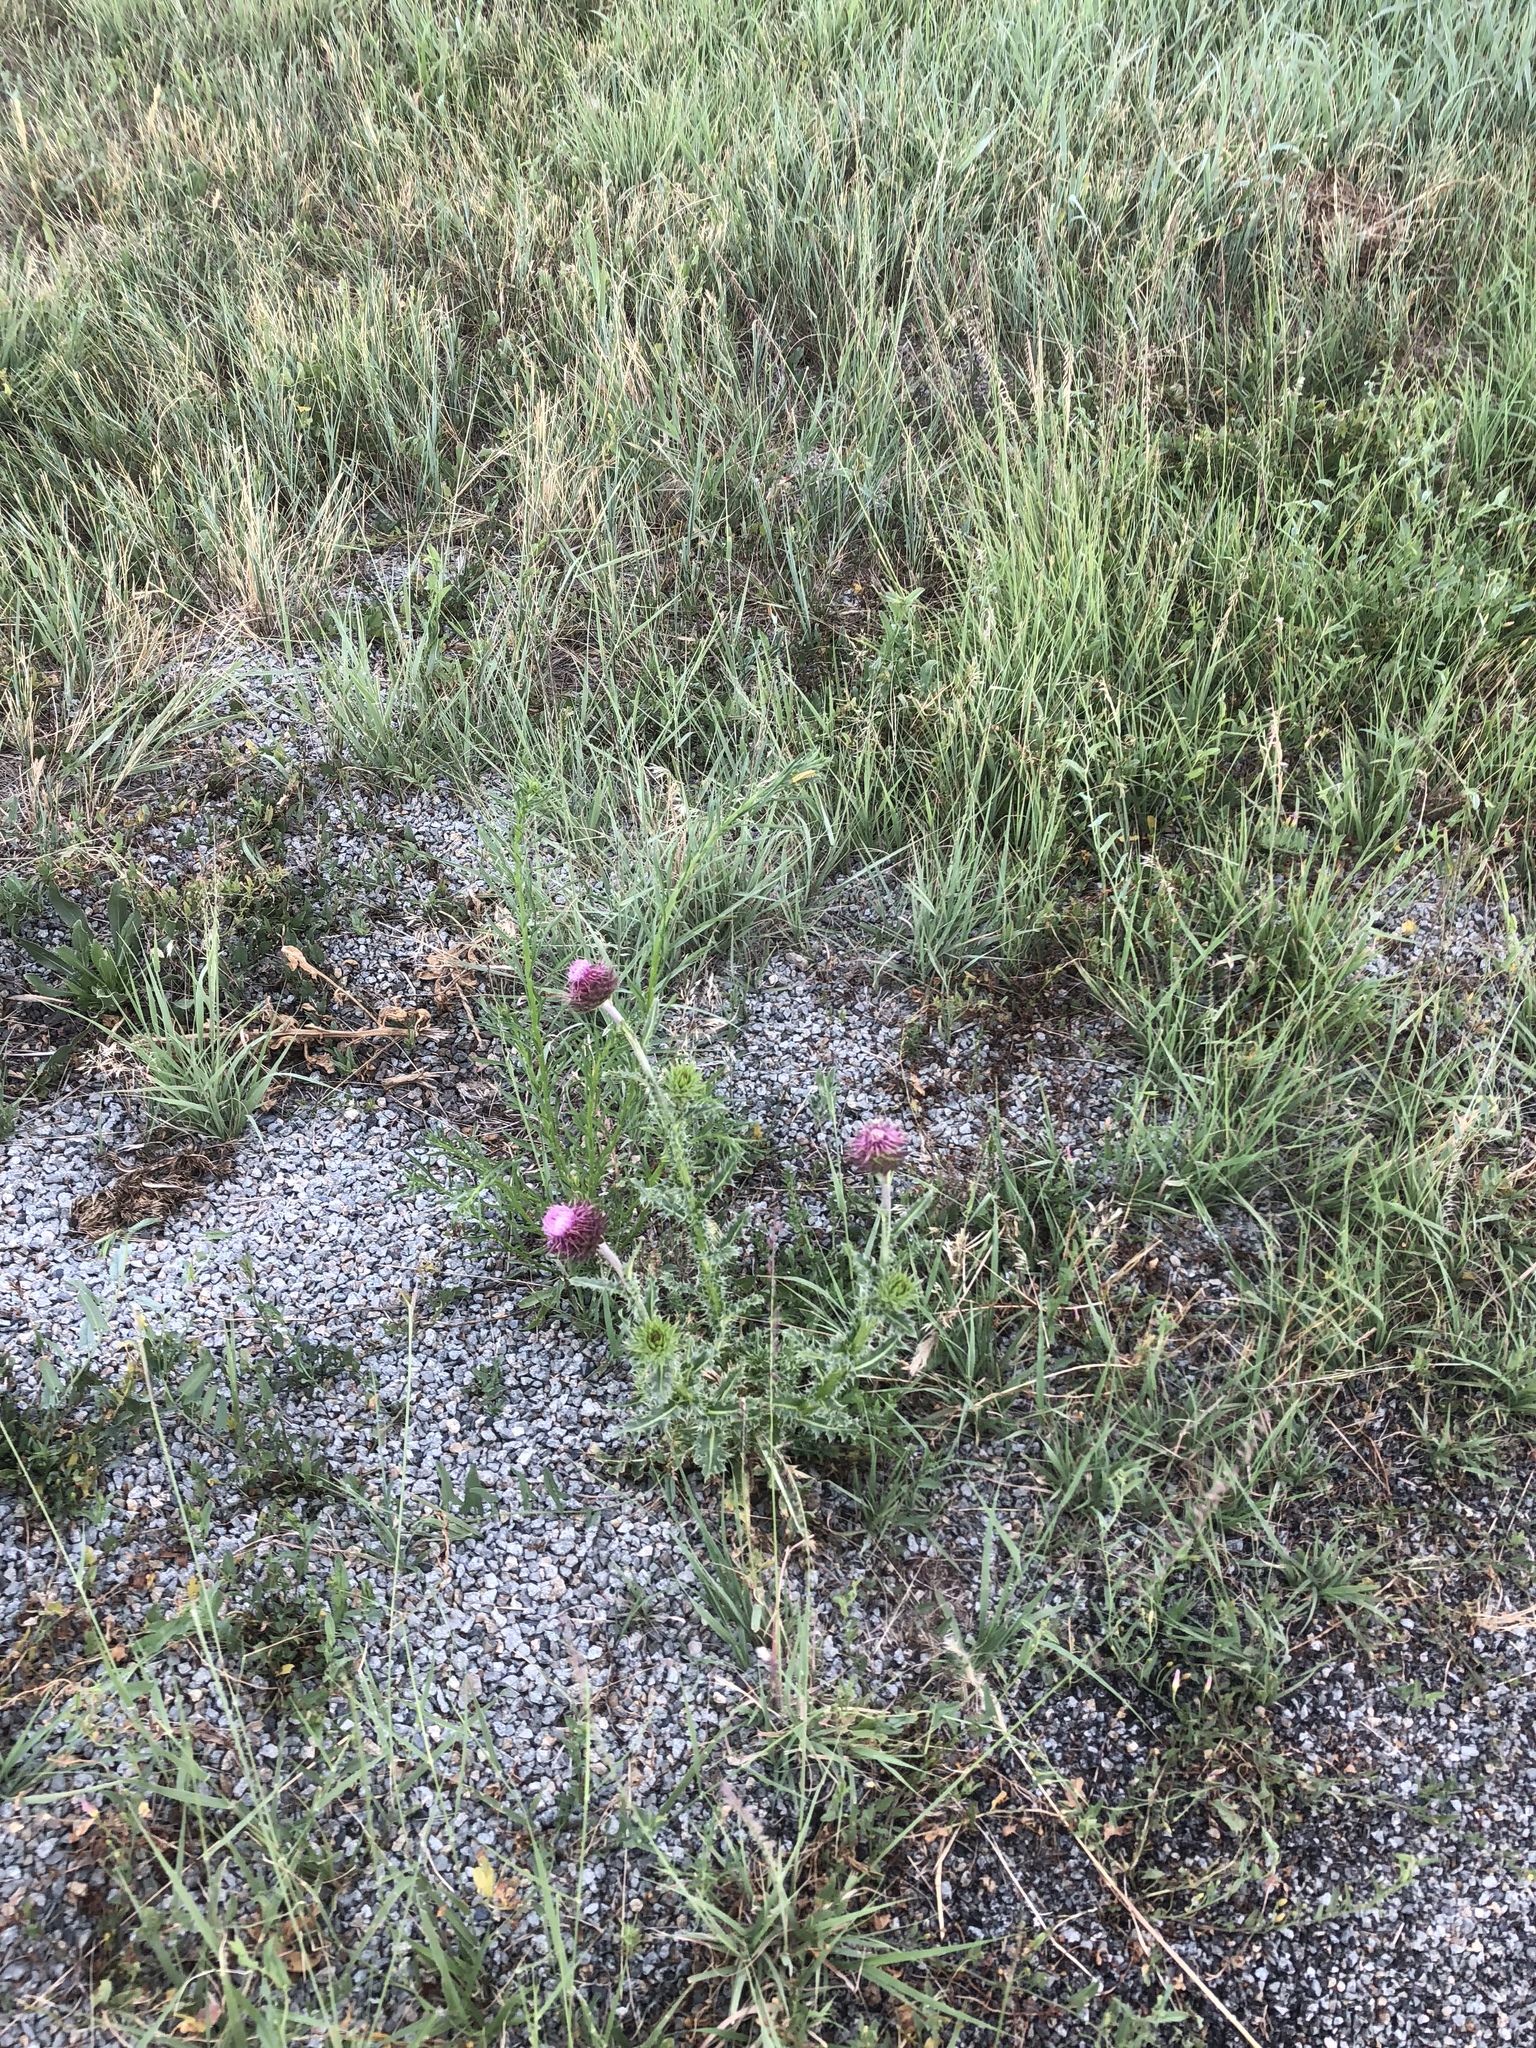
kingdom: Plantae
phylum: Tracheophyta
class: Magnoliopsida
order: Asterales
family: Asteraceae
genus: Carduus
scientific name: Carduus nutans
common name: Musk thistle
